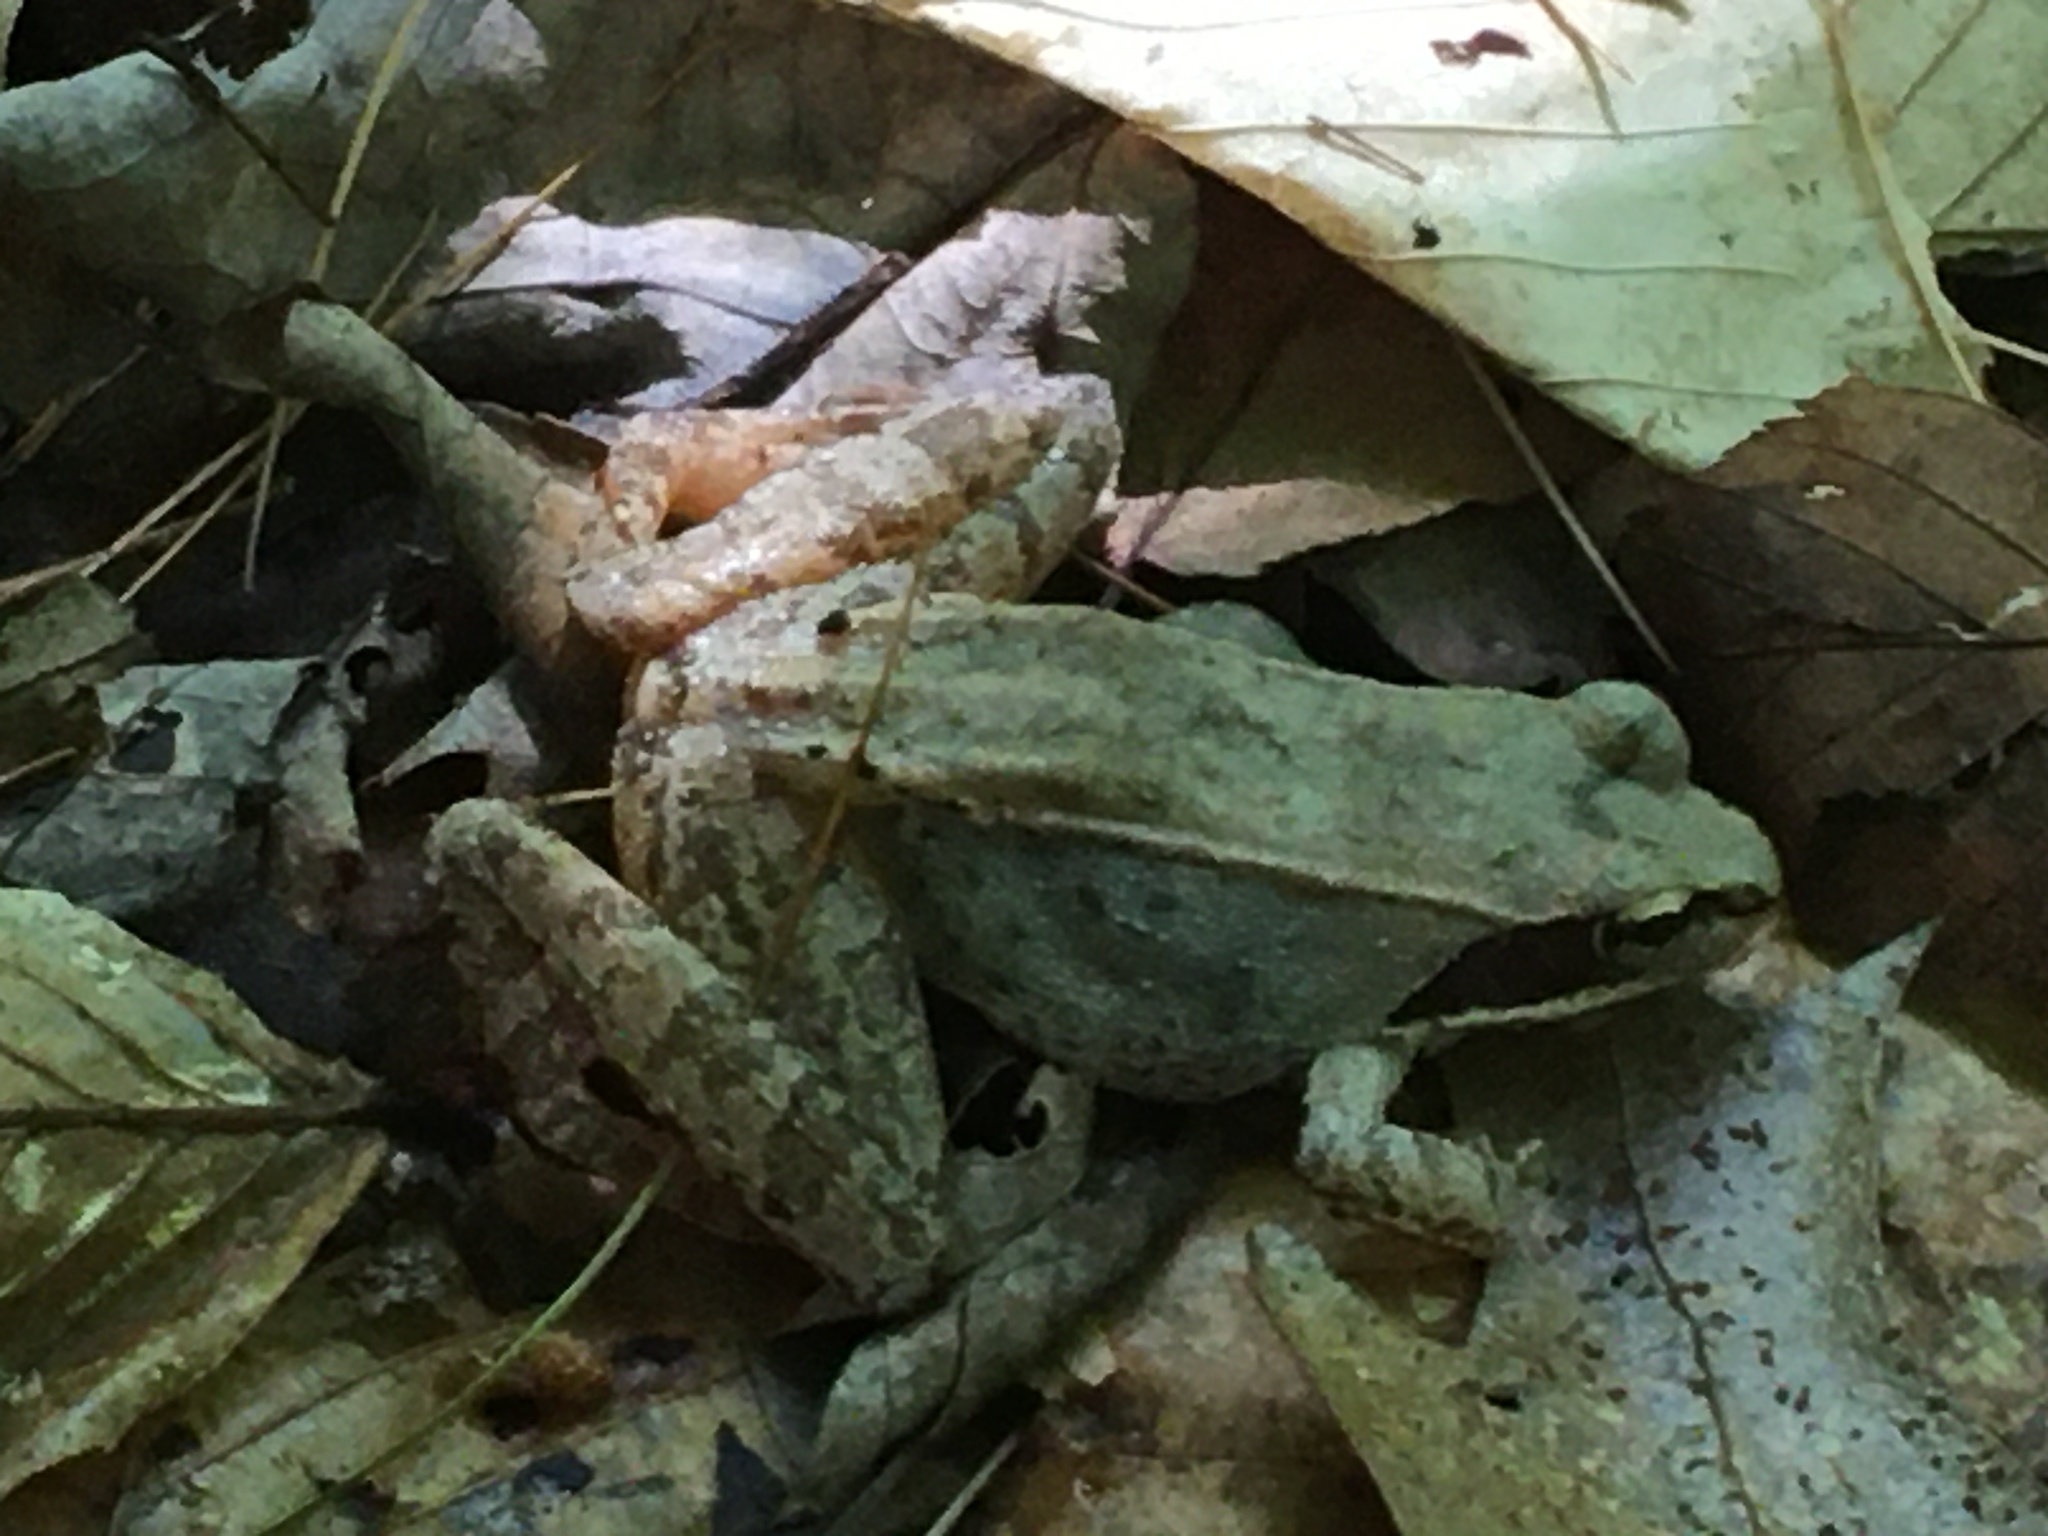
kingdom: Animalia
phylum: Chordata
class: Amphibia
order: Anura
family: Ranidae
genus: Lithobates
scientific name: Lithobates sylvaticus
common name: Wood frog
